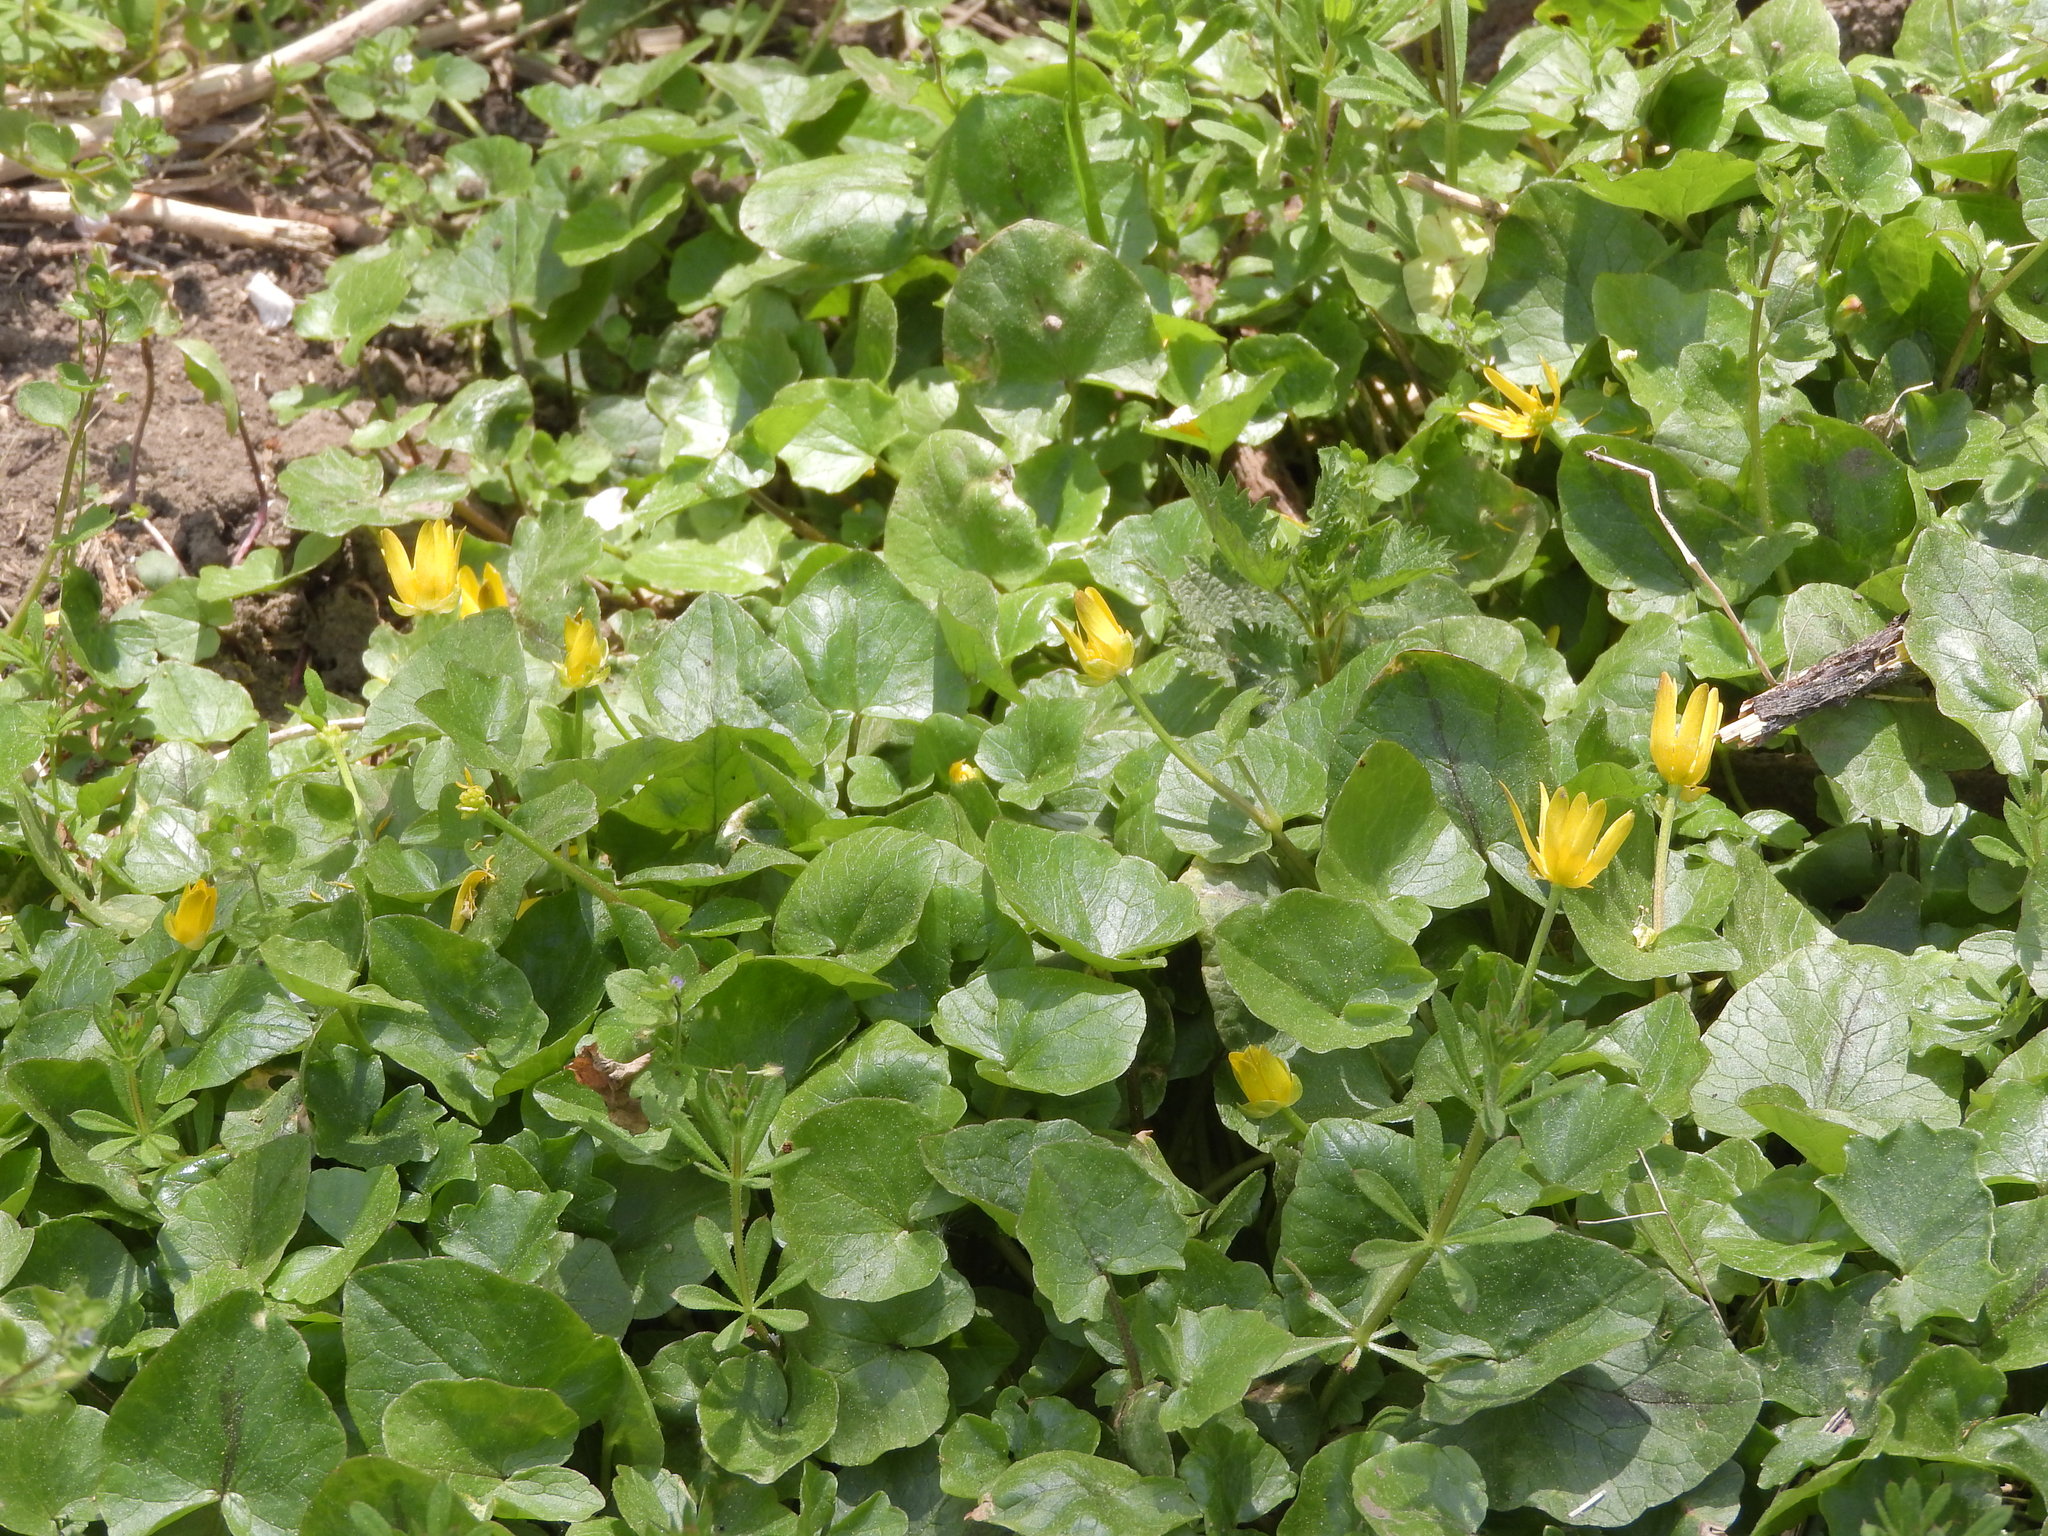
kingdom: Plantae
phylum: Tracheophyta
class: Magnoliopsida
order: Ranunculales
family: Ranunculaceae
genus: Ficaria
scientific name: Ficaria verna
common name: Lesser celandine
